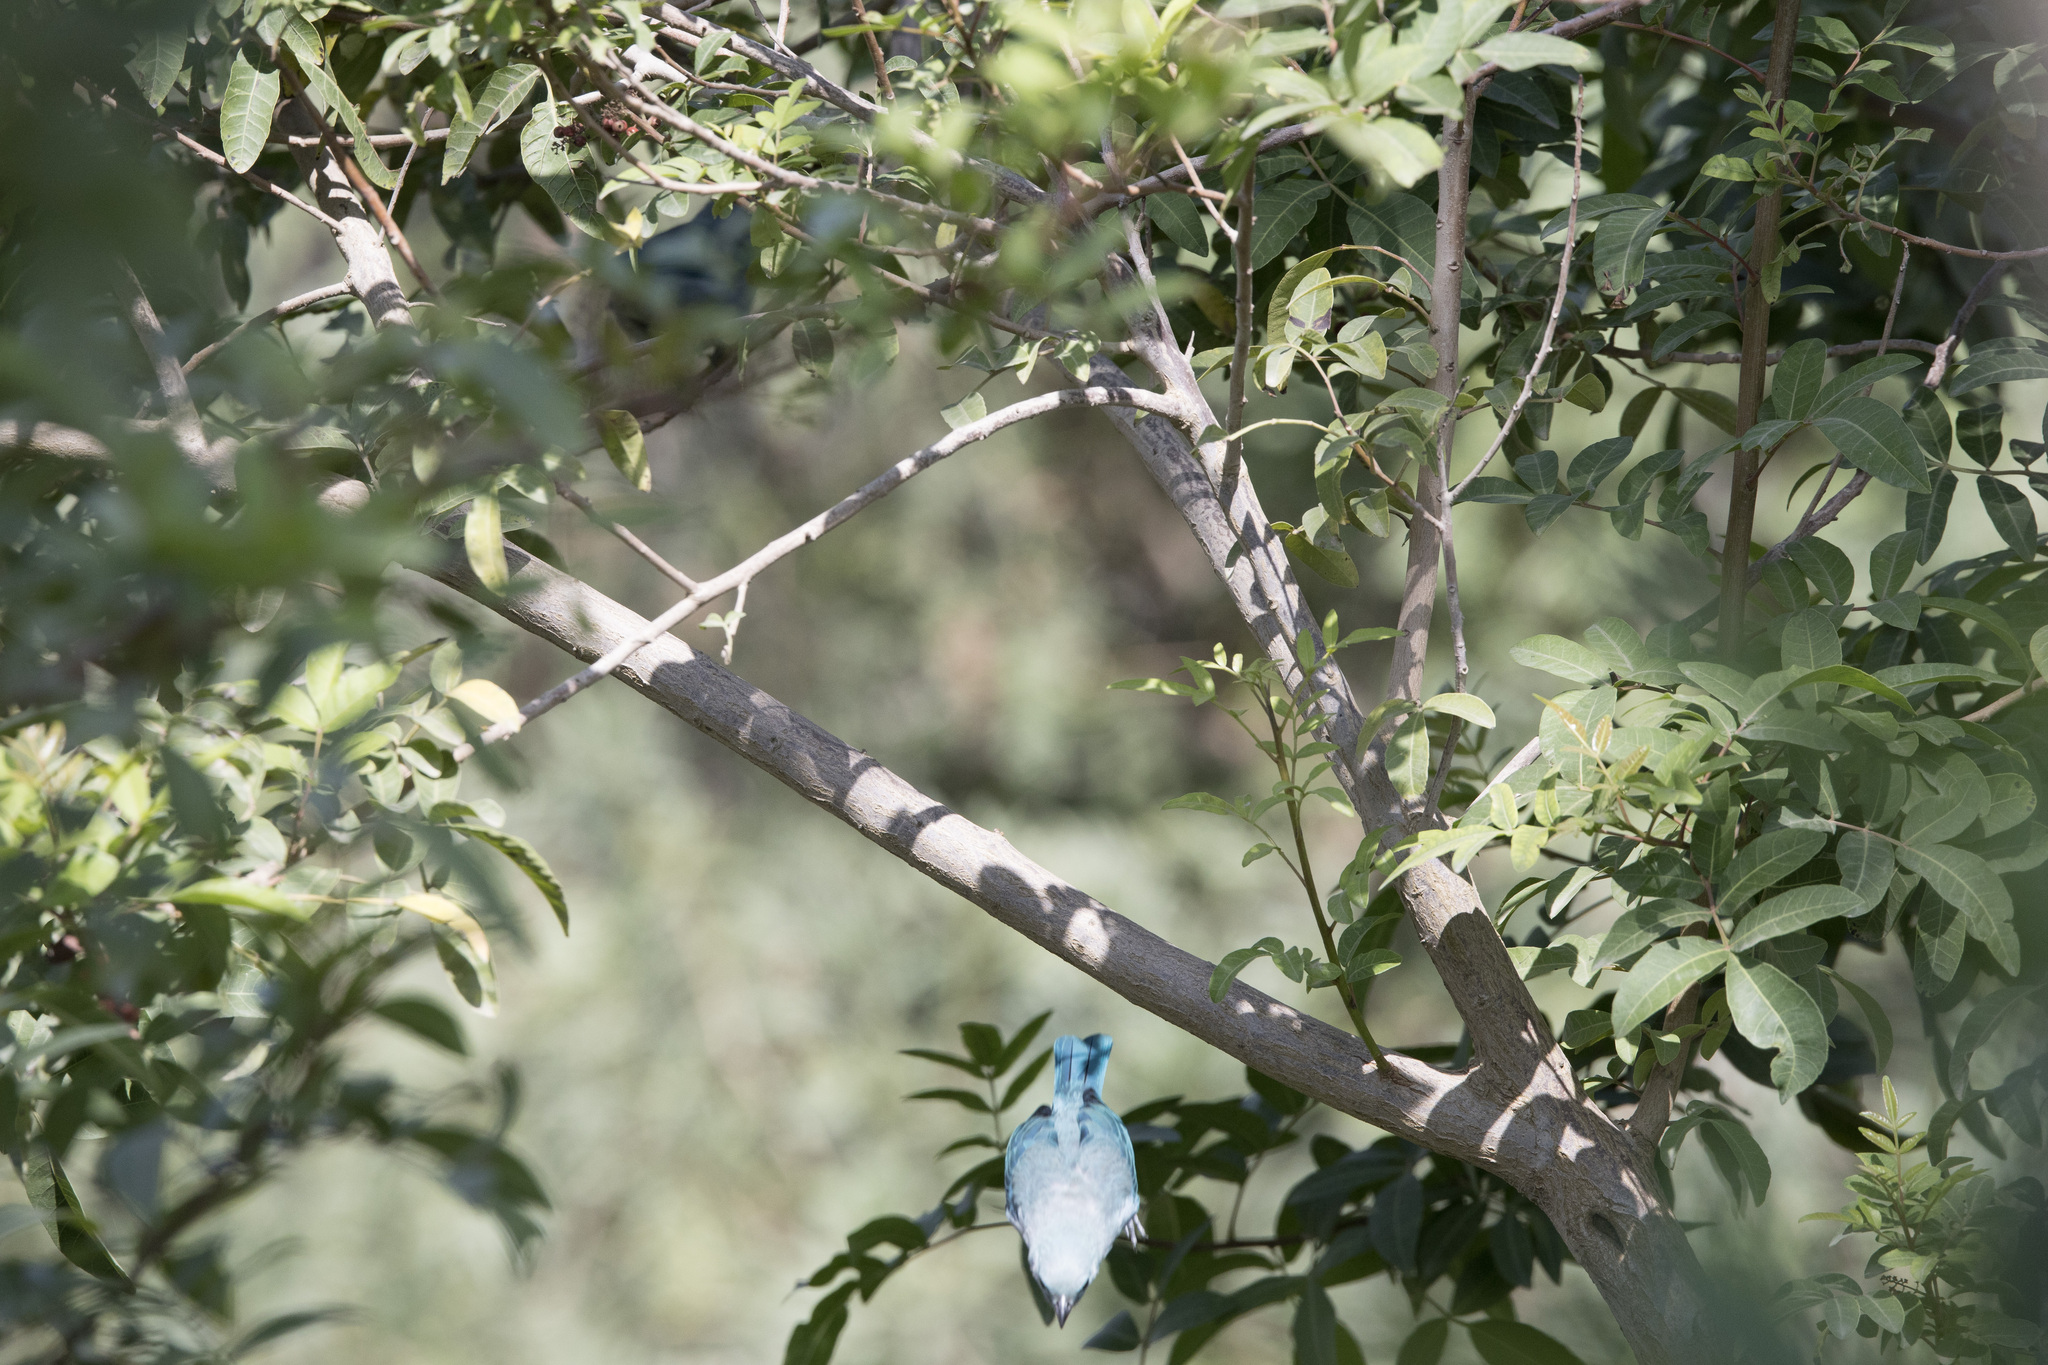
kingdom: Animalia
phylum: Chordata
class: Aves
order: Passeriformes
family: Thraupidae
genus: Thraupis
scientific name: Thraupis episcopus
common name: Blue-grey tanager
